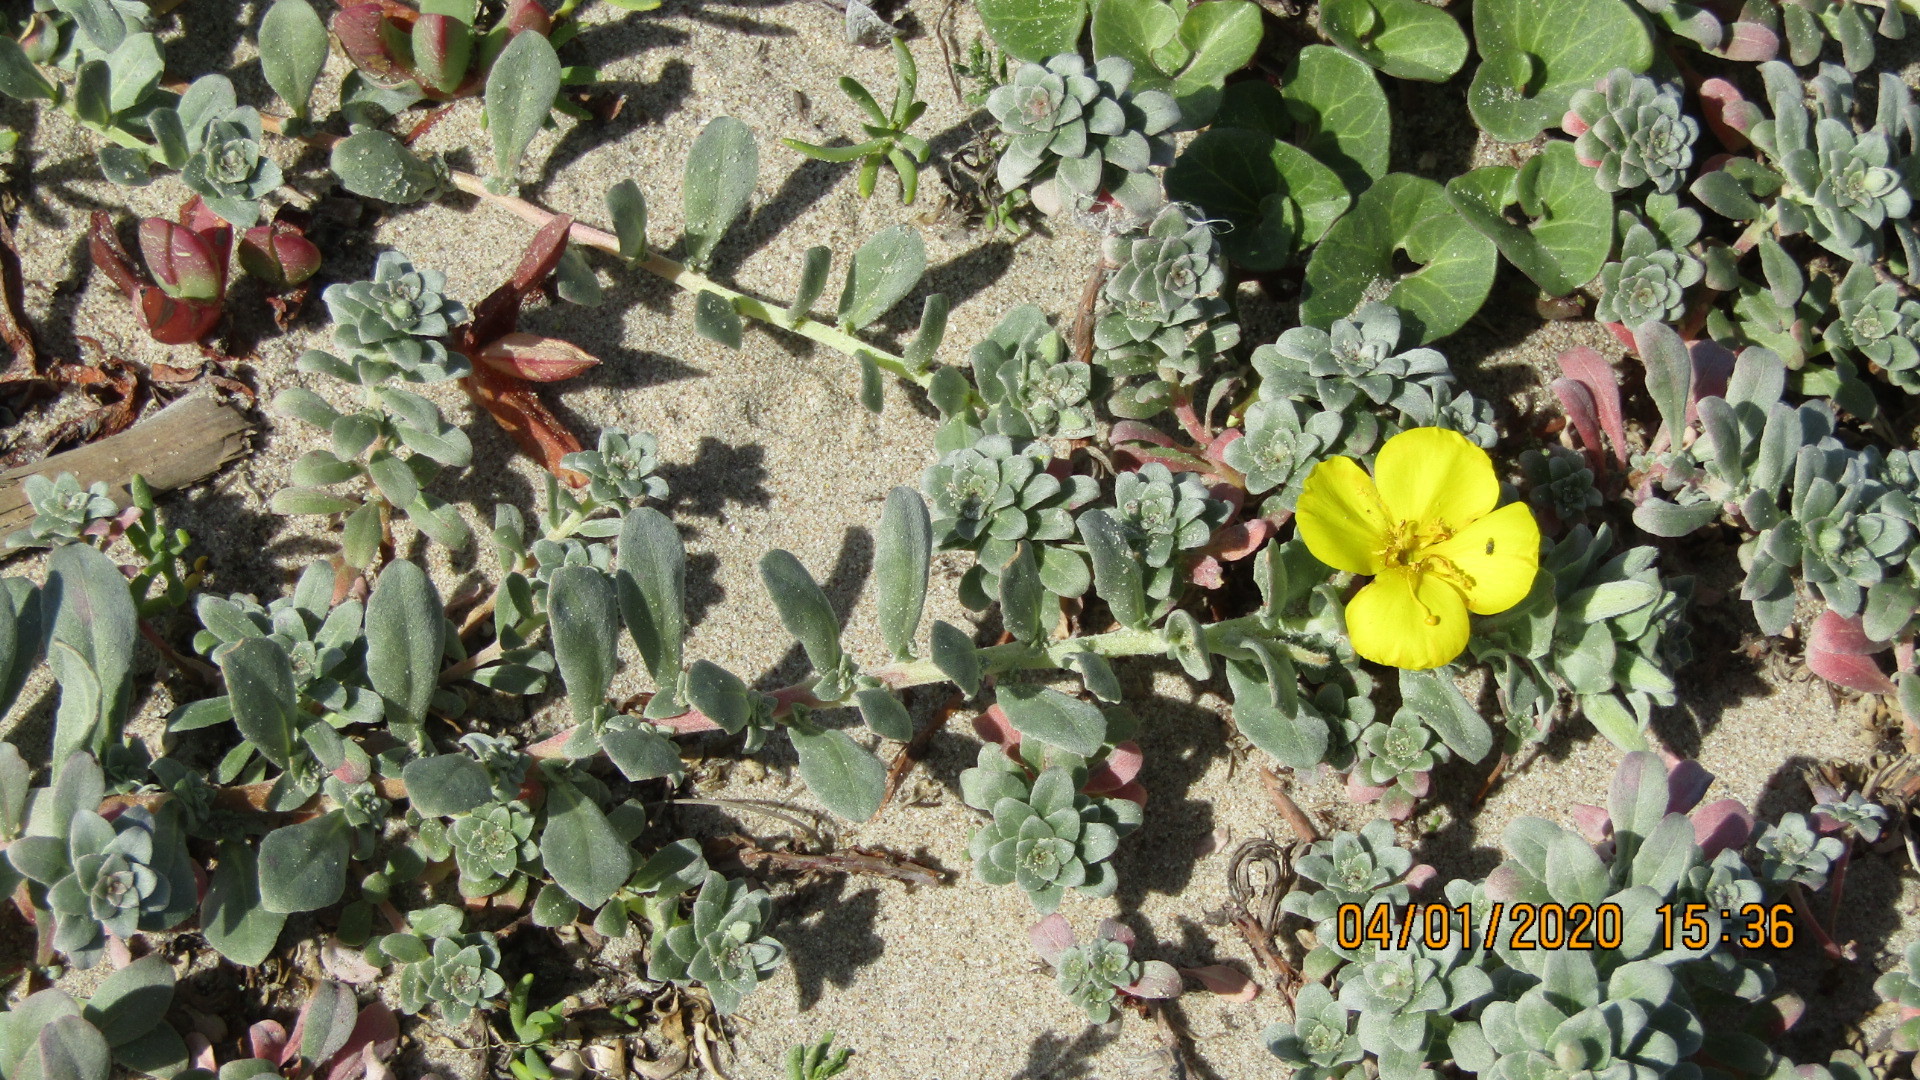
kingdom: Plantae
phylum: Tracheophyta
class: Magnoliopsida
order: Myrtales
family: Onagraceae
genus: Camissoniopsis
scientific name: Camissoniopsis cheiranthifolia
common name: Beach suncup
